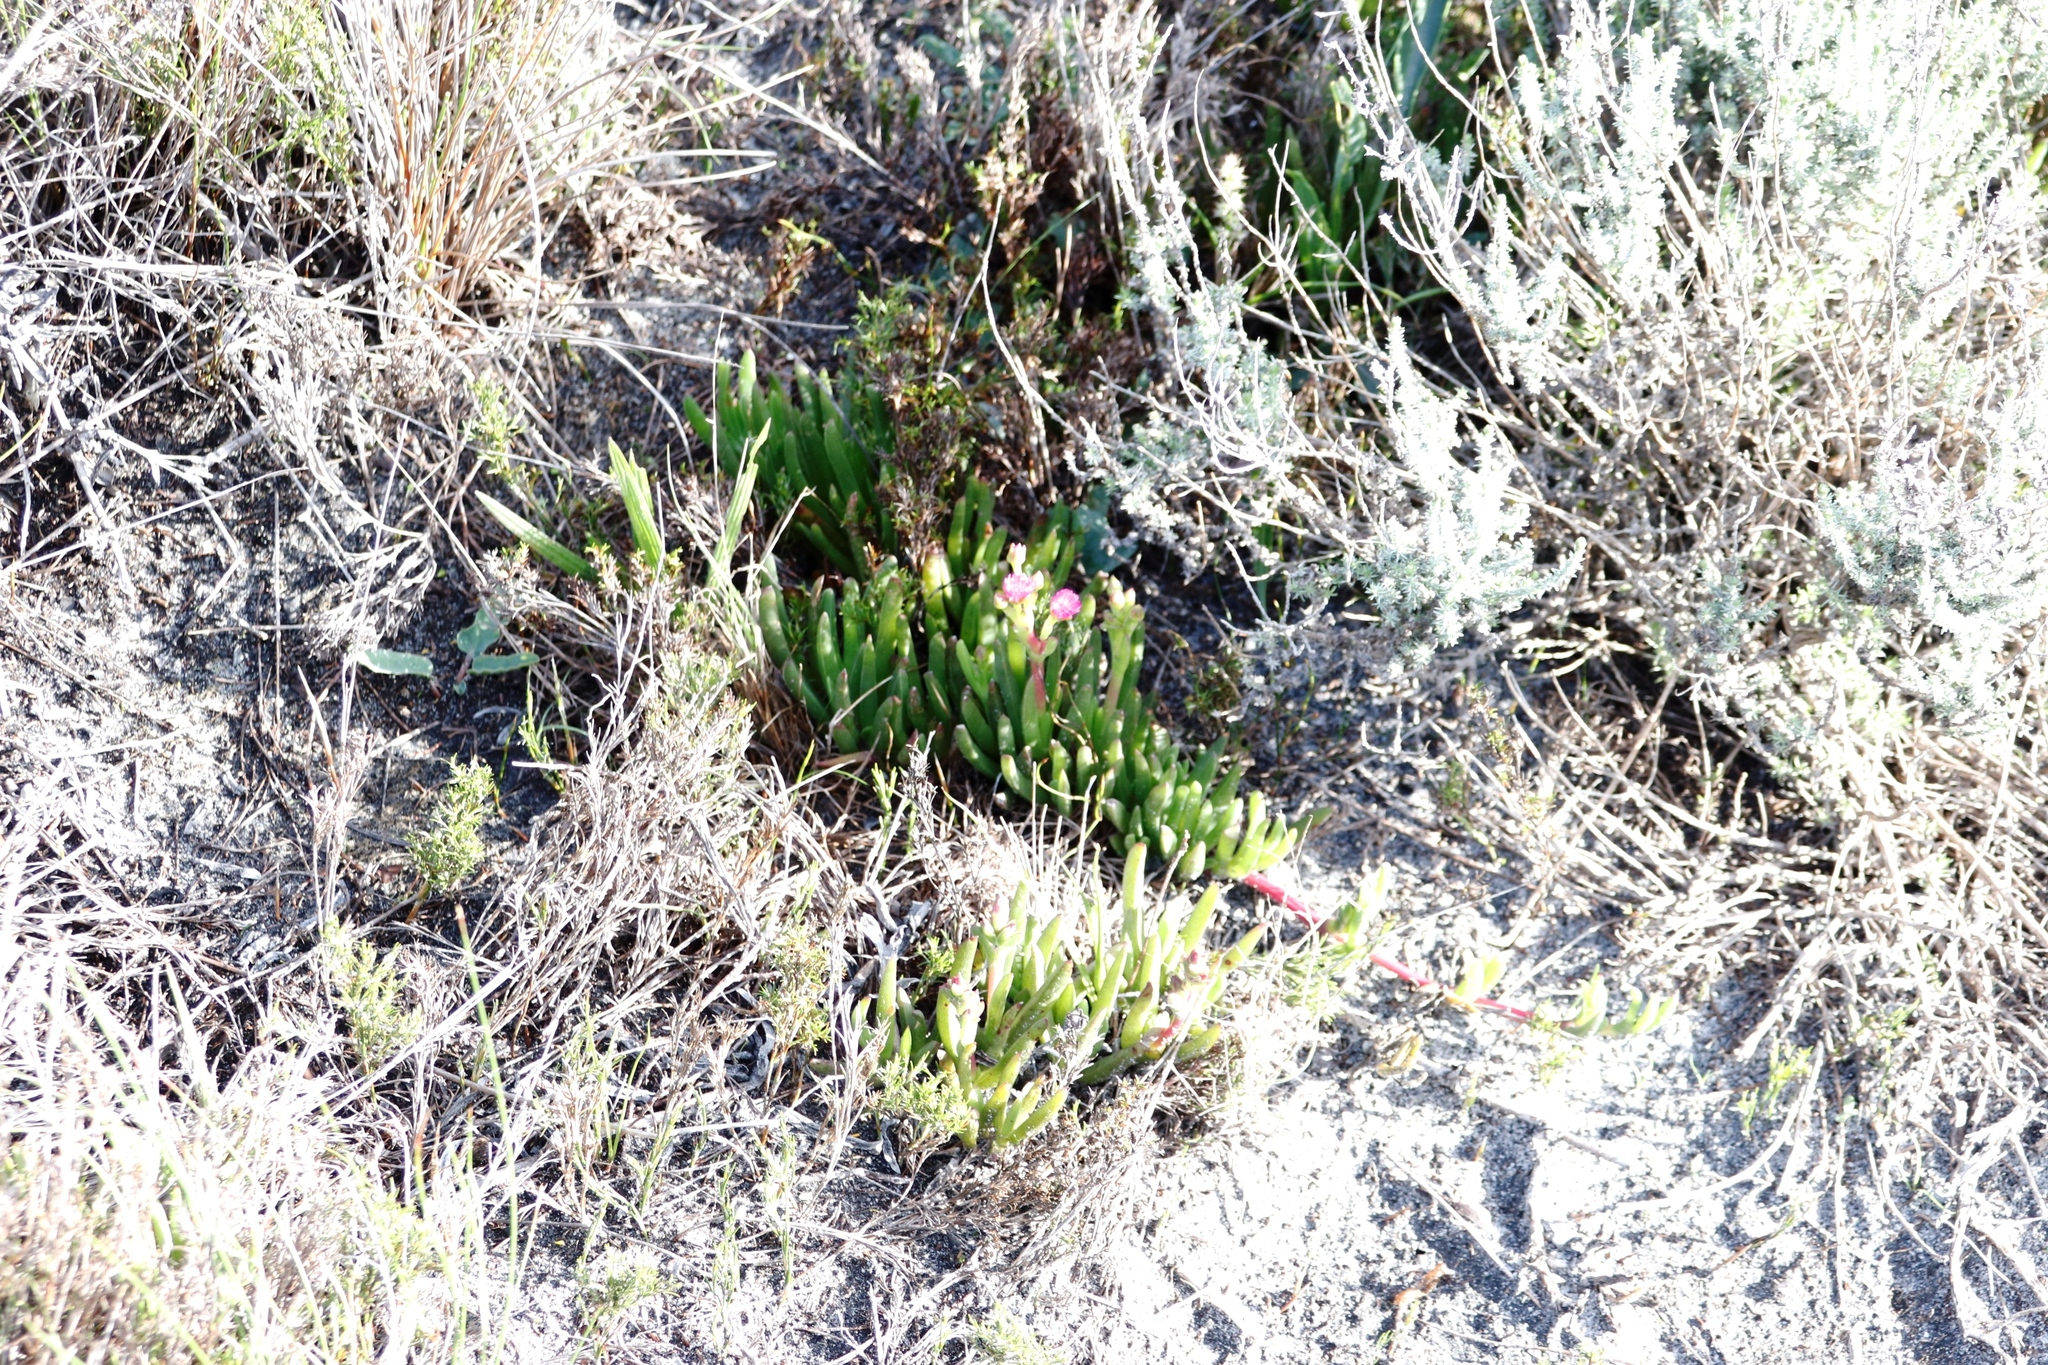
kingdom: Plantae
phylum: Tracheophyta
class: Magnoliopsida
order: Caryophyllales
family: Aizoaceae
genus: Ruschia
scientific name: Ruschia sarmentosa
